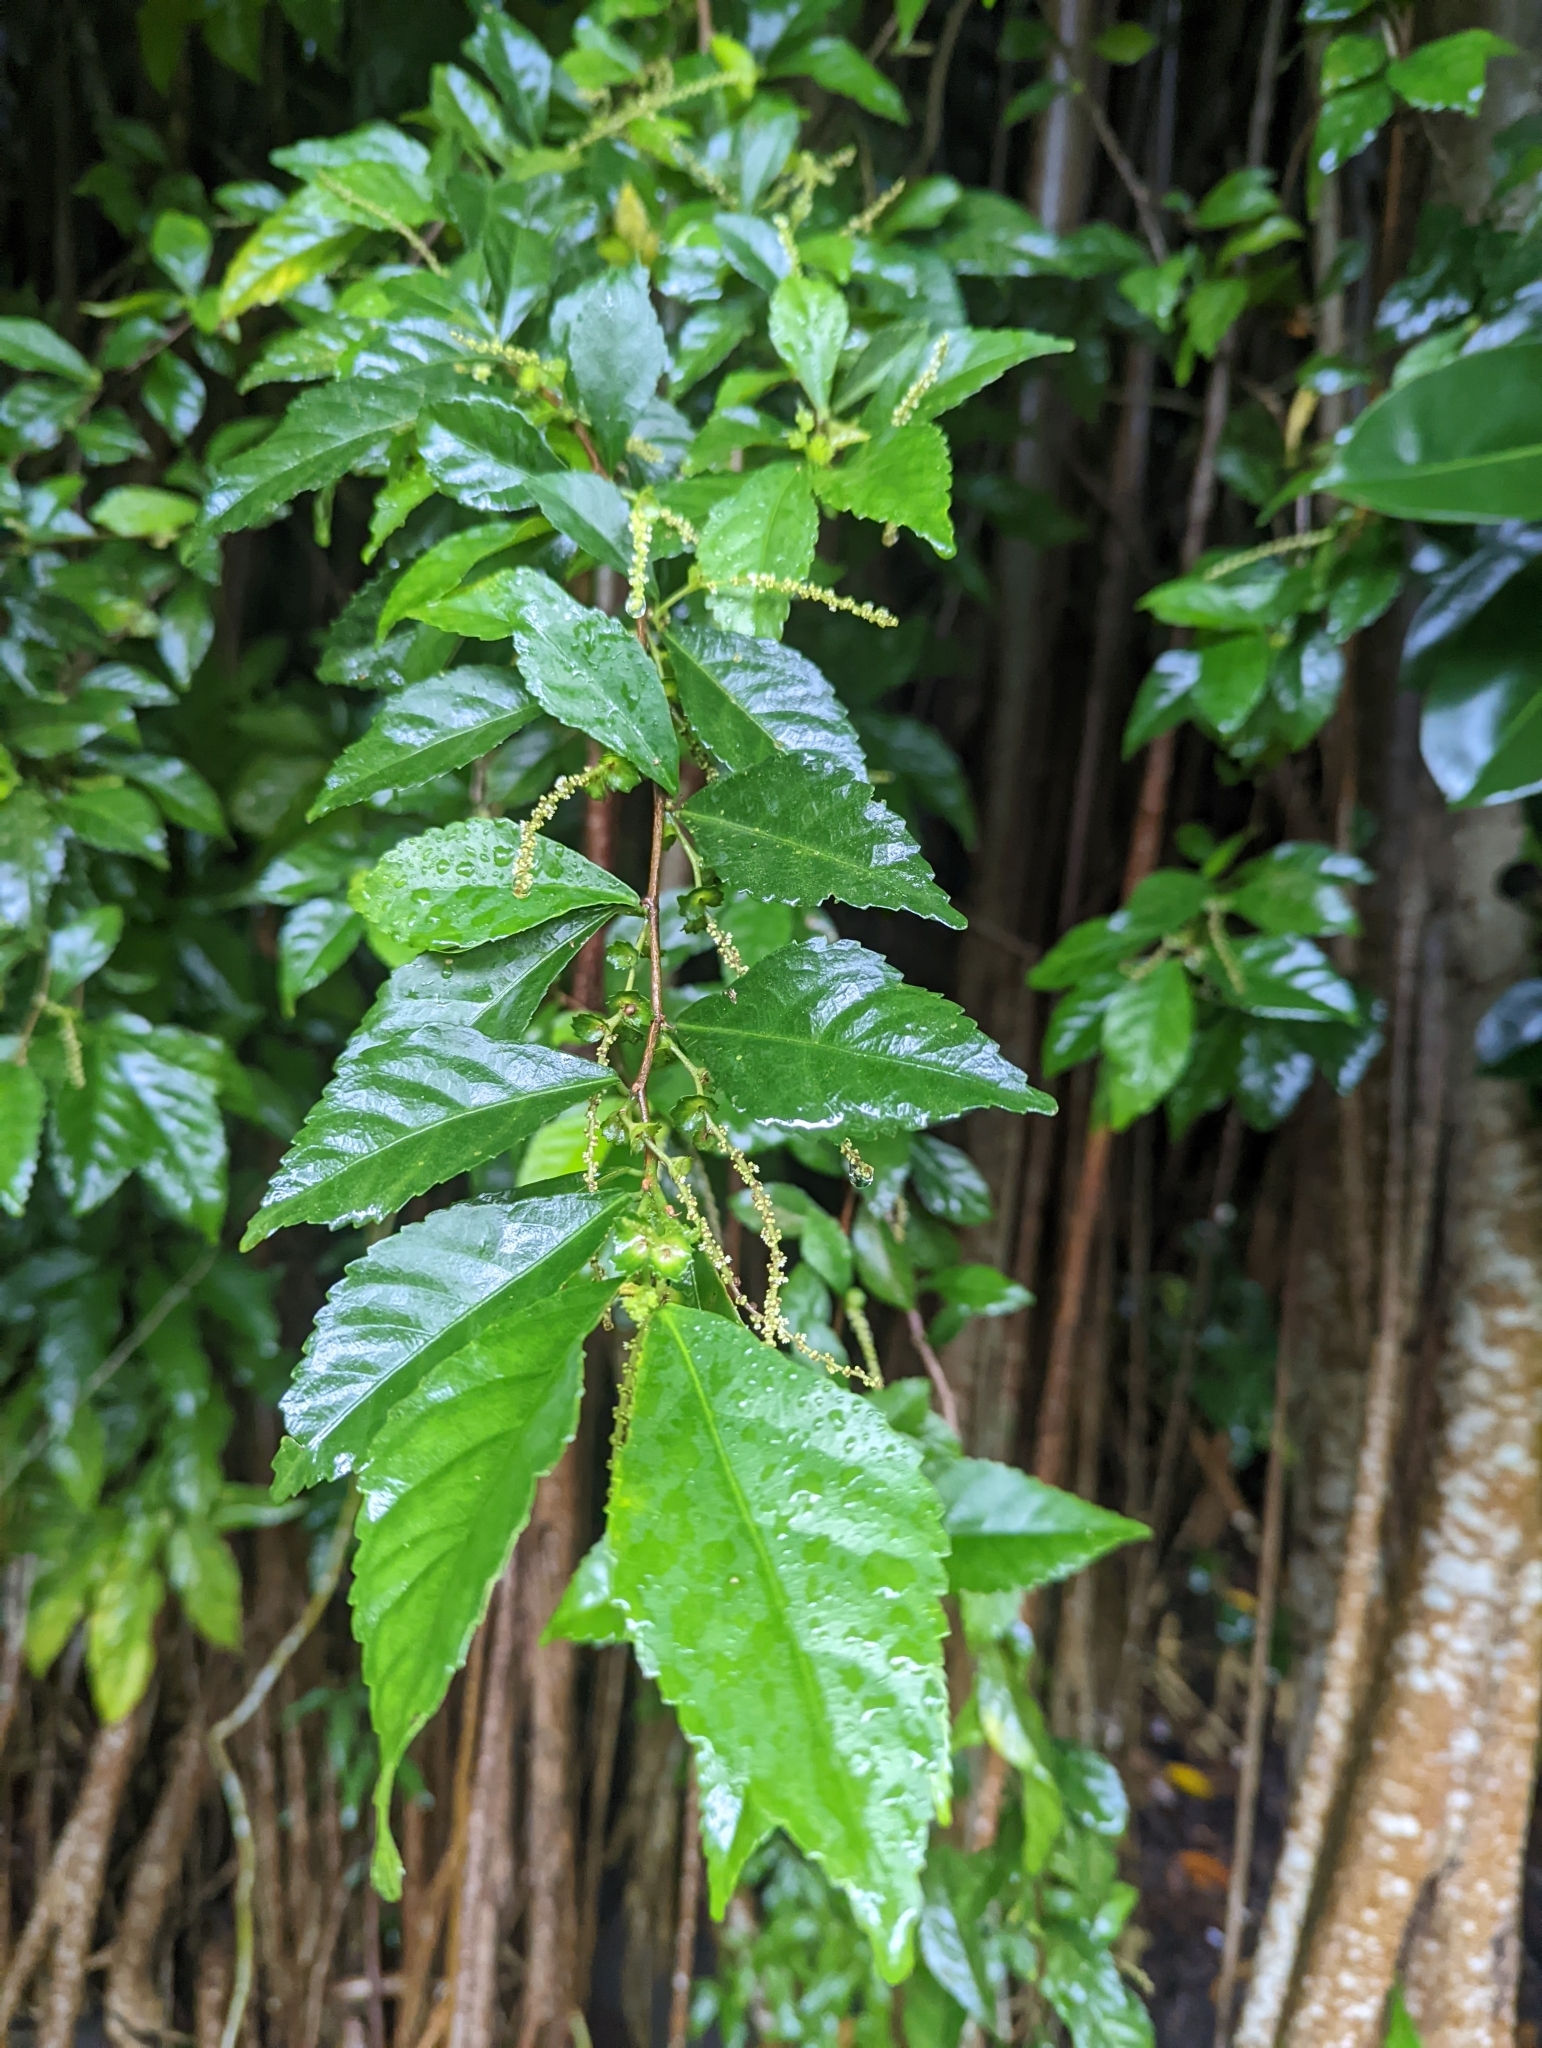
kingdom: Plantae
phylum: Tracheophyta
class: Magnoliopsida
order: Malpighiales
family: Euphorbiaceae
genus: Acalypha
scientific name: Acalypha siamensis
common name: Wild tea
